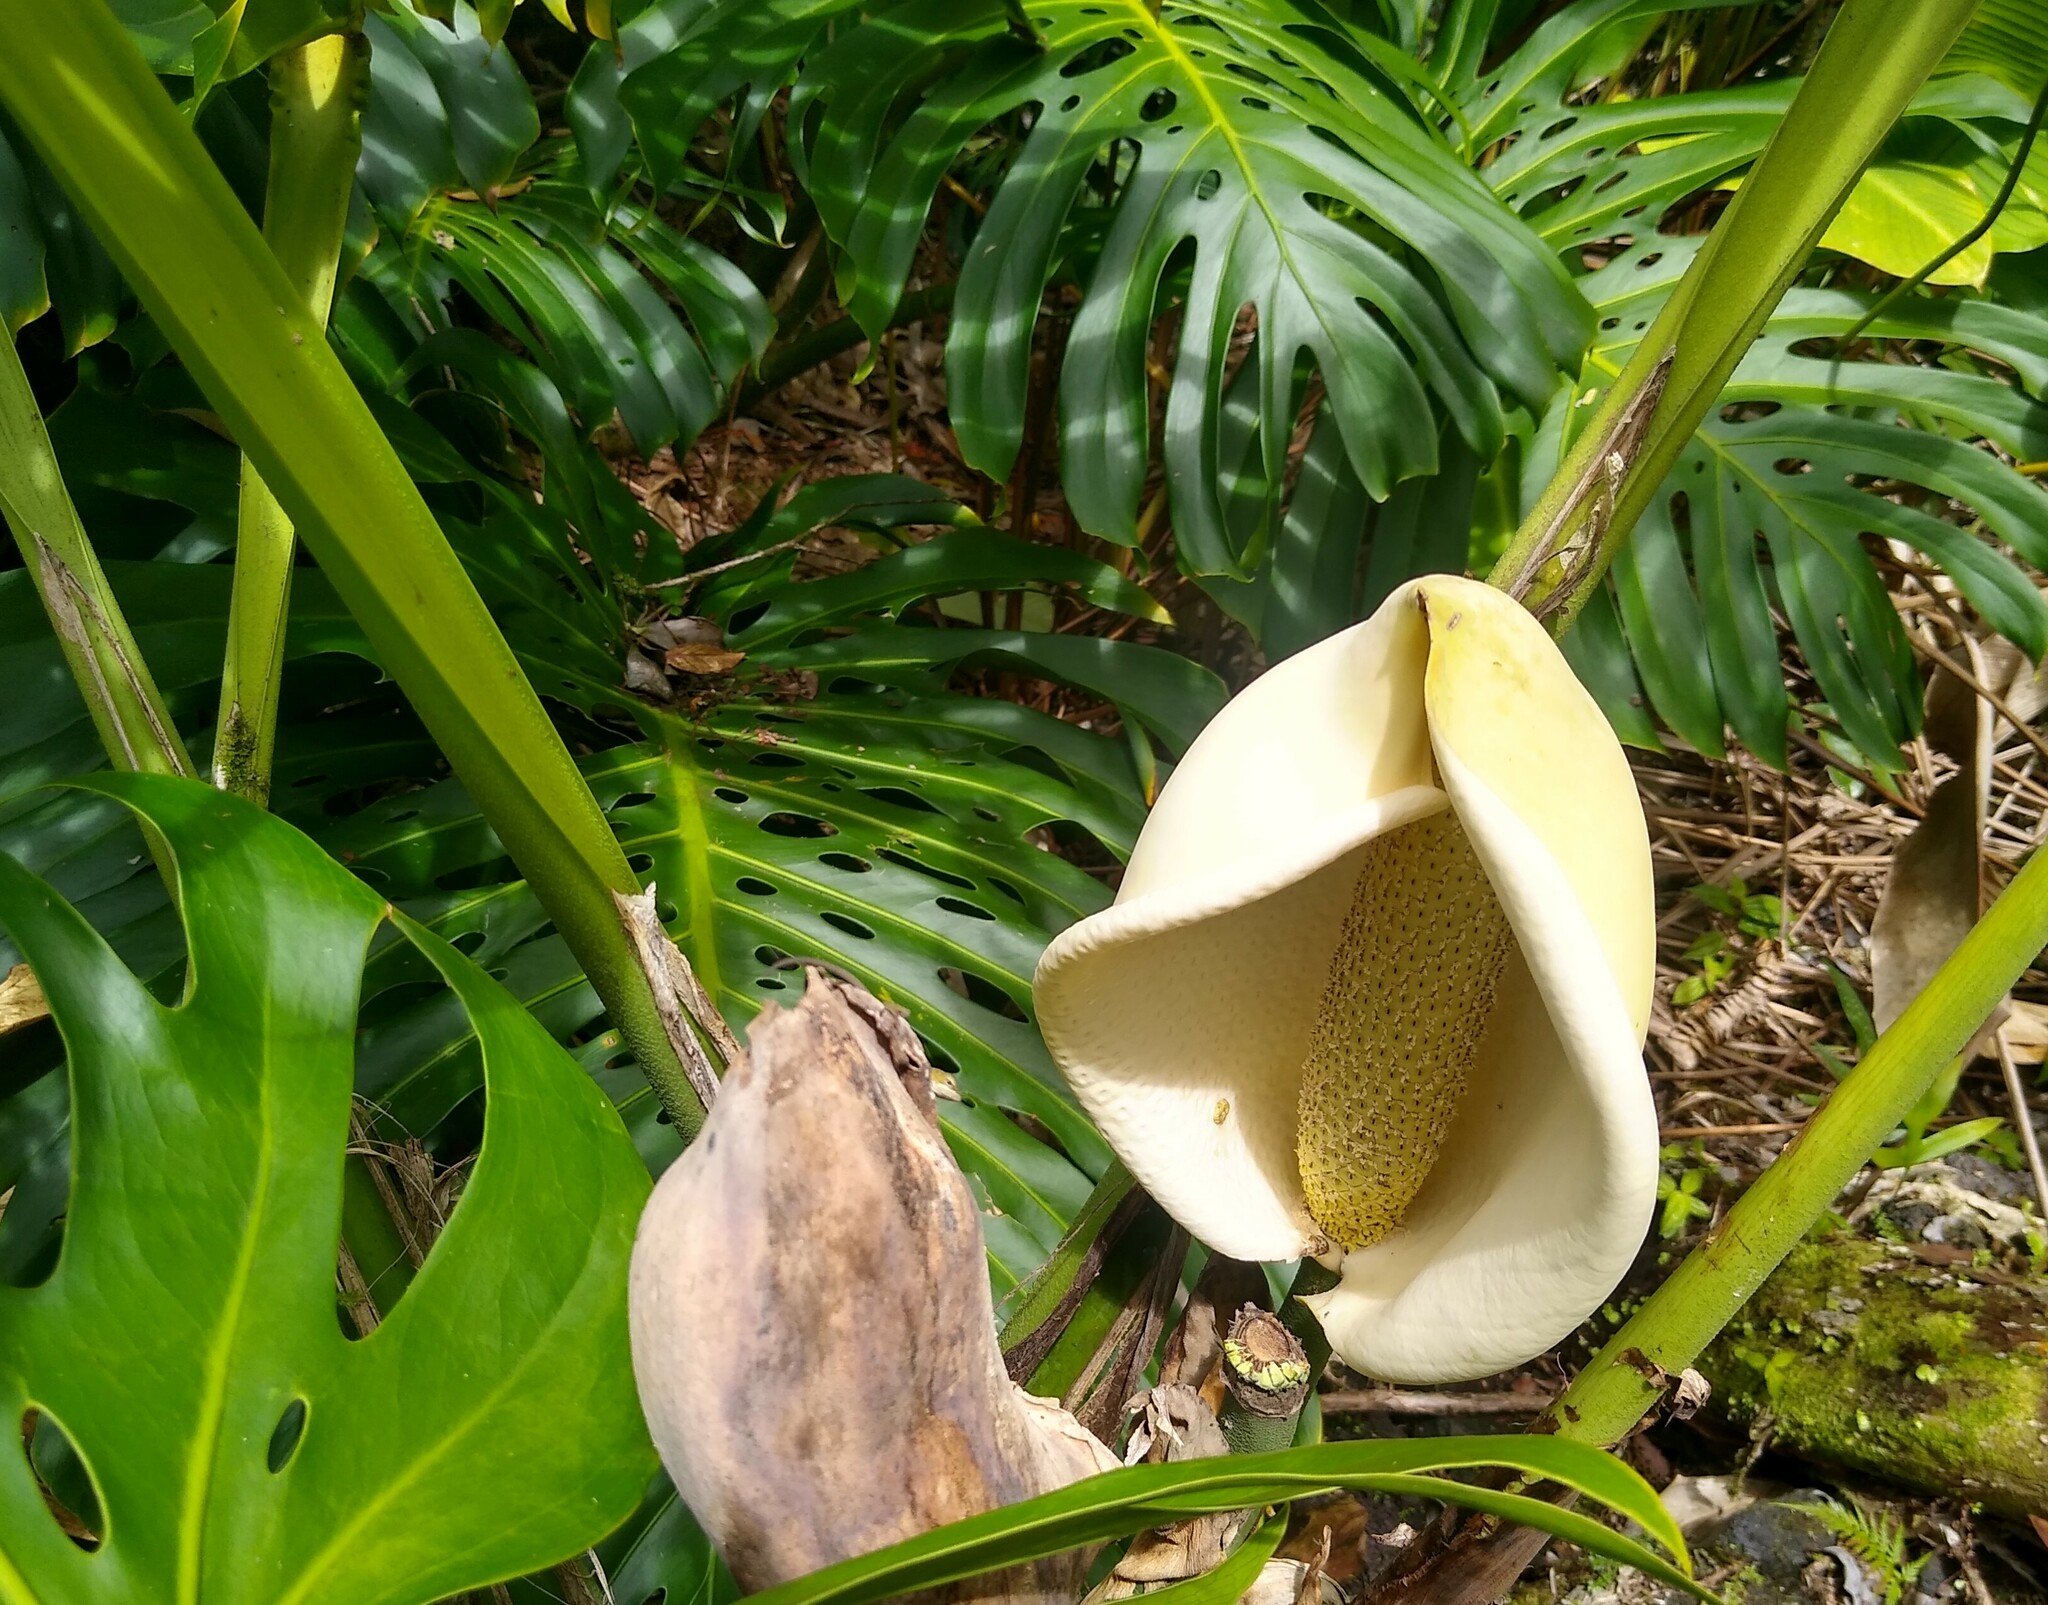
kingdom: Plantae
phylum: Tracheophyta
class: Liliopsida
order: Alismatales
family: Araceae
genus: Monstera
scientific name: Monstera deliciosa
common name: Cut-leaf-philodendron
